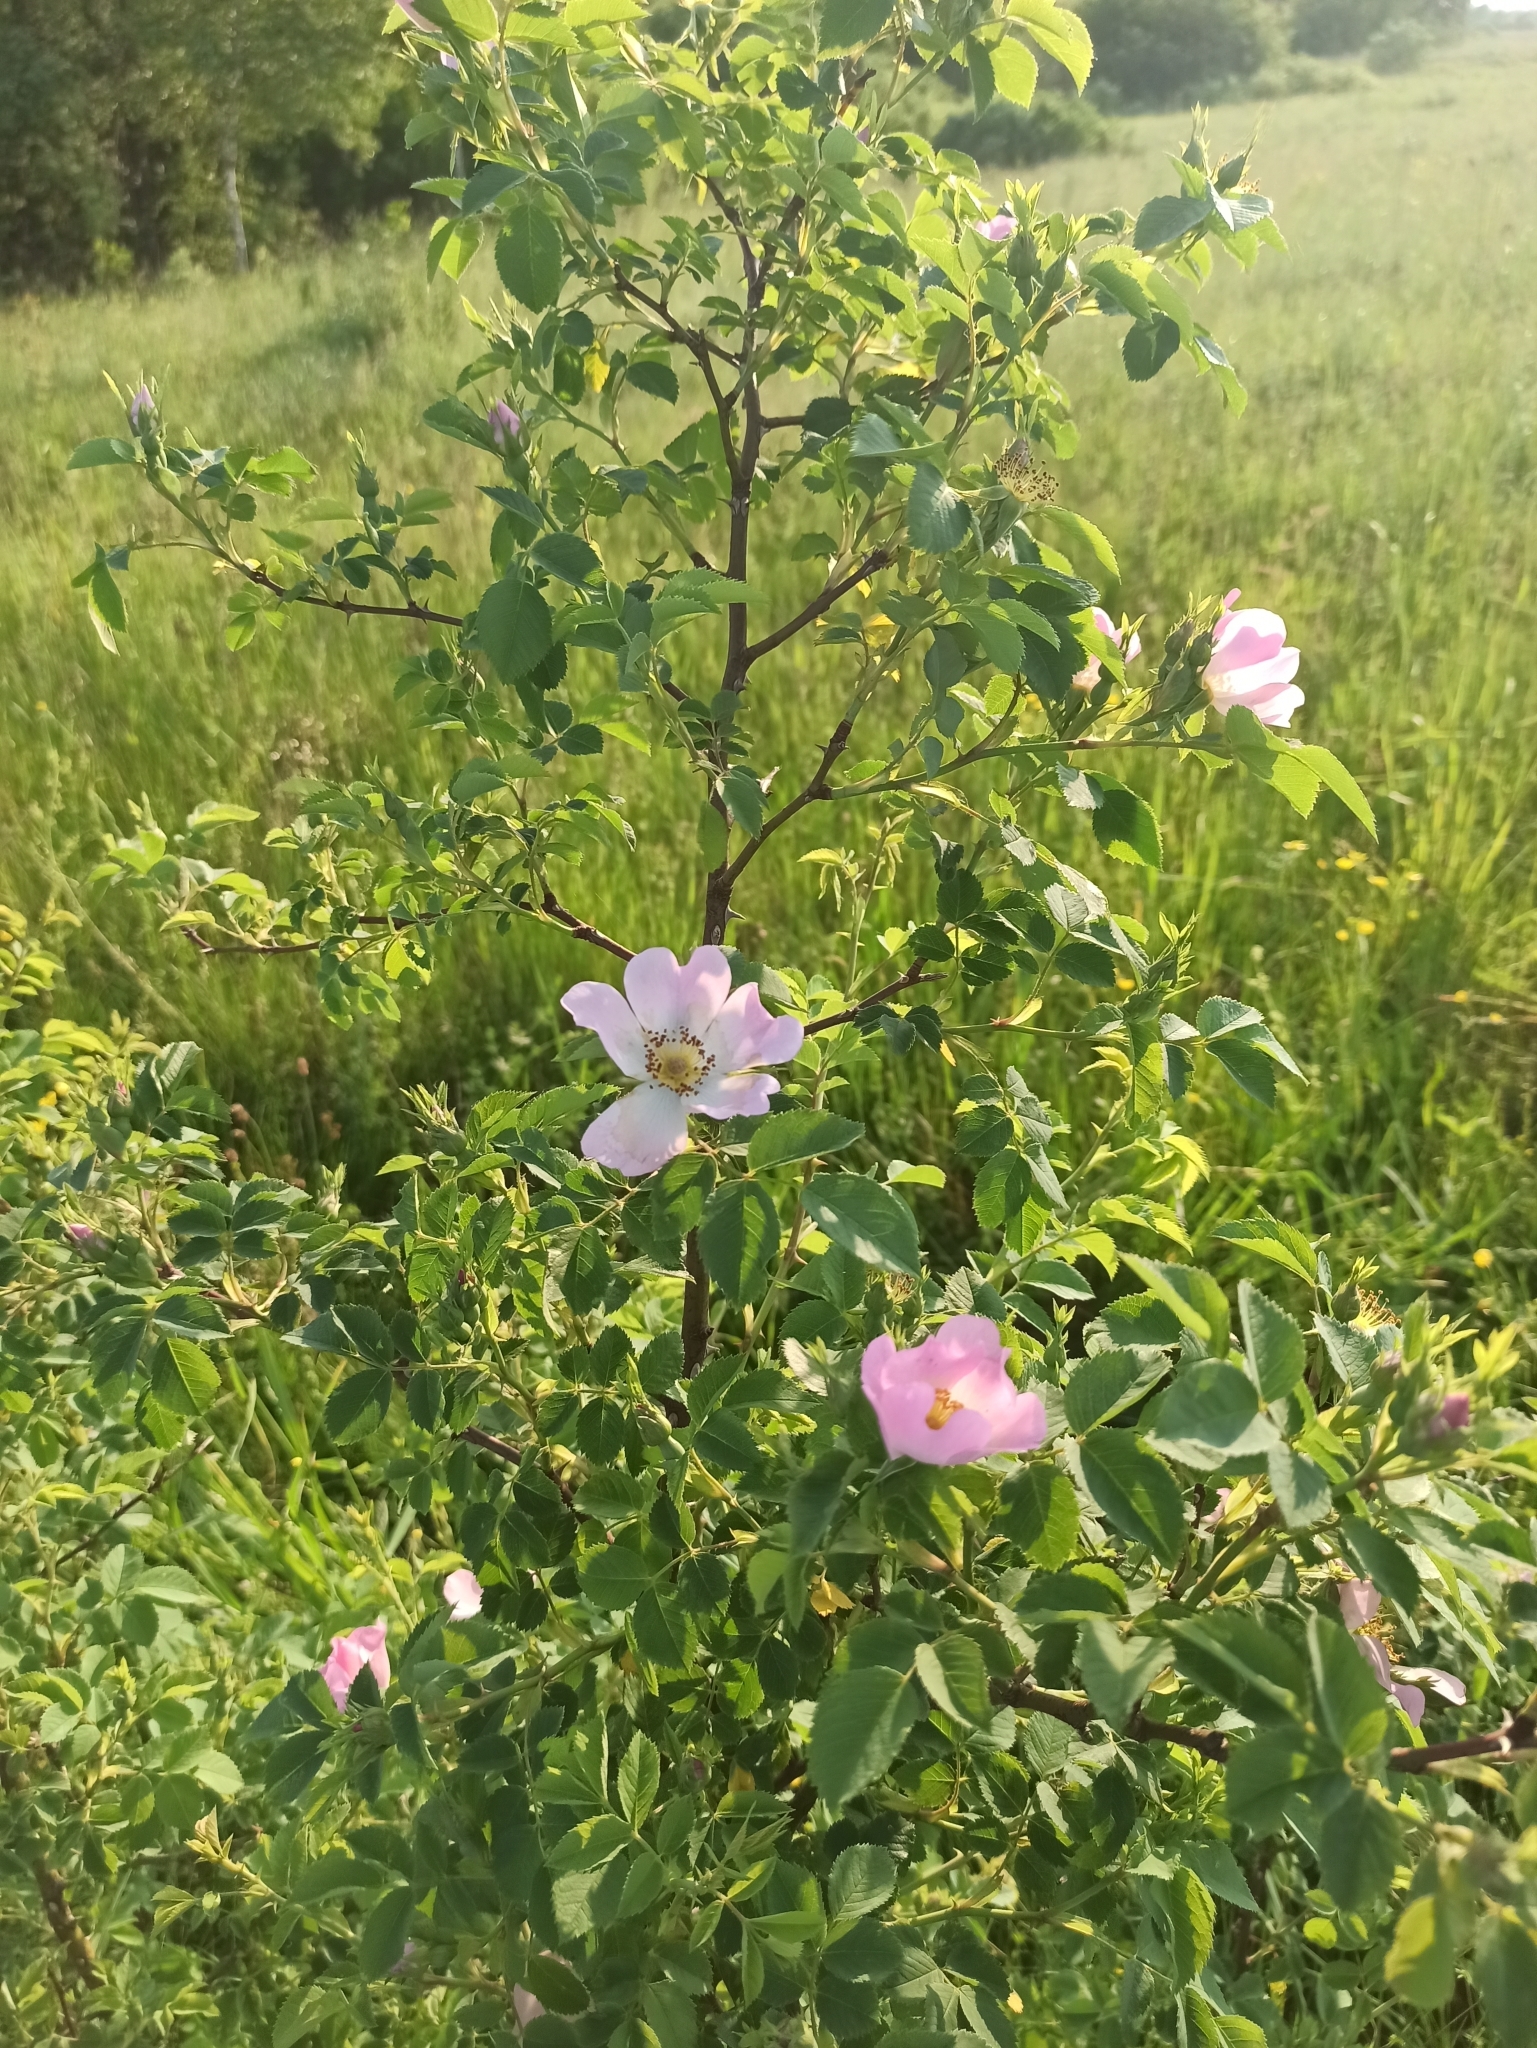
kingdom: Plantae
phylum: Tracheophyta
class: Magnoliopsida
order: Rosales
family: Rosaceae
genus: Rosa
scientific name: Rosa canina
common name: Dog rose
